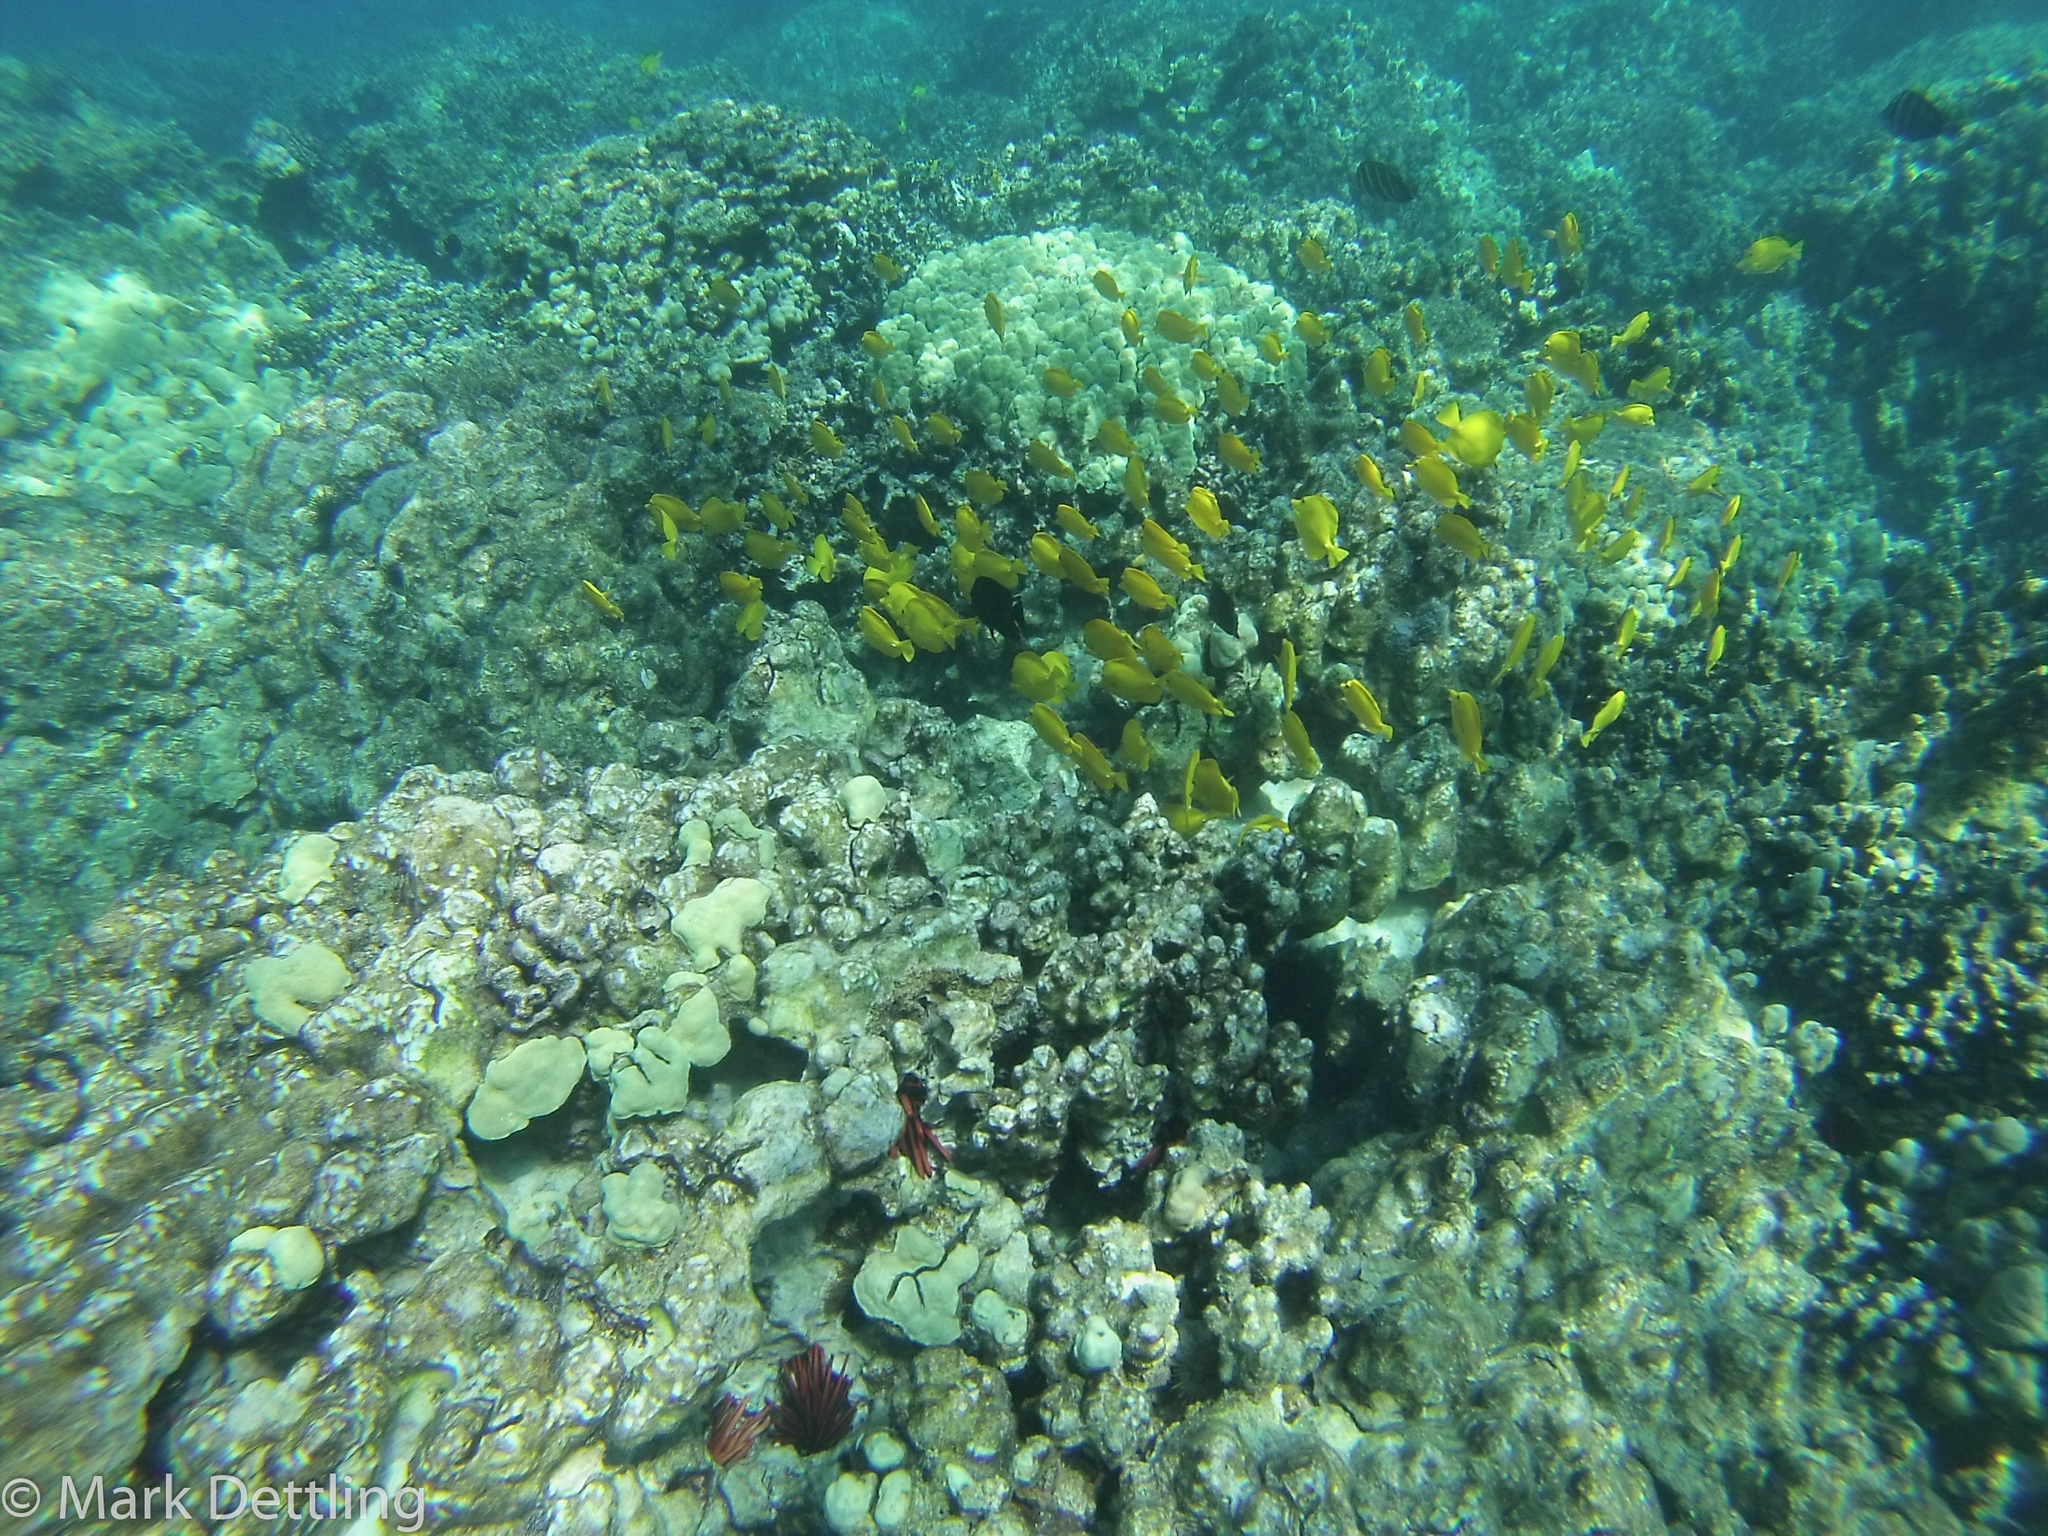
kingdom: Animalia
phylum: Chordata
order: Perciformes
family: Acanthuridae
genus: Zebrasoma
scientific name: Zebrasoma flavescens
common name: Yellow tang
